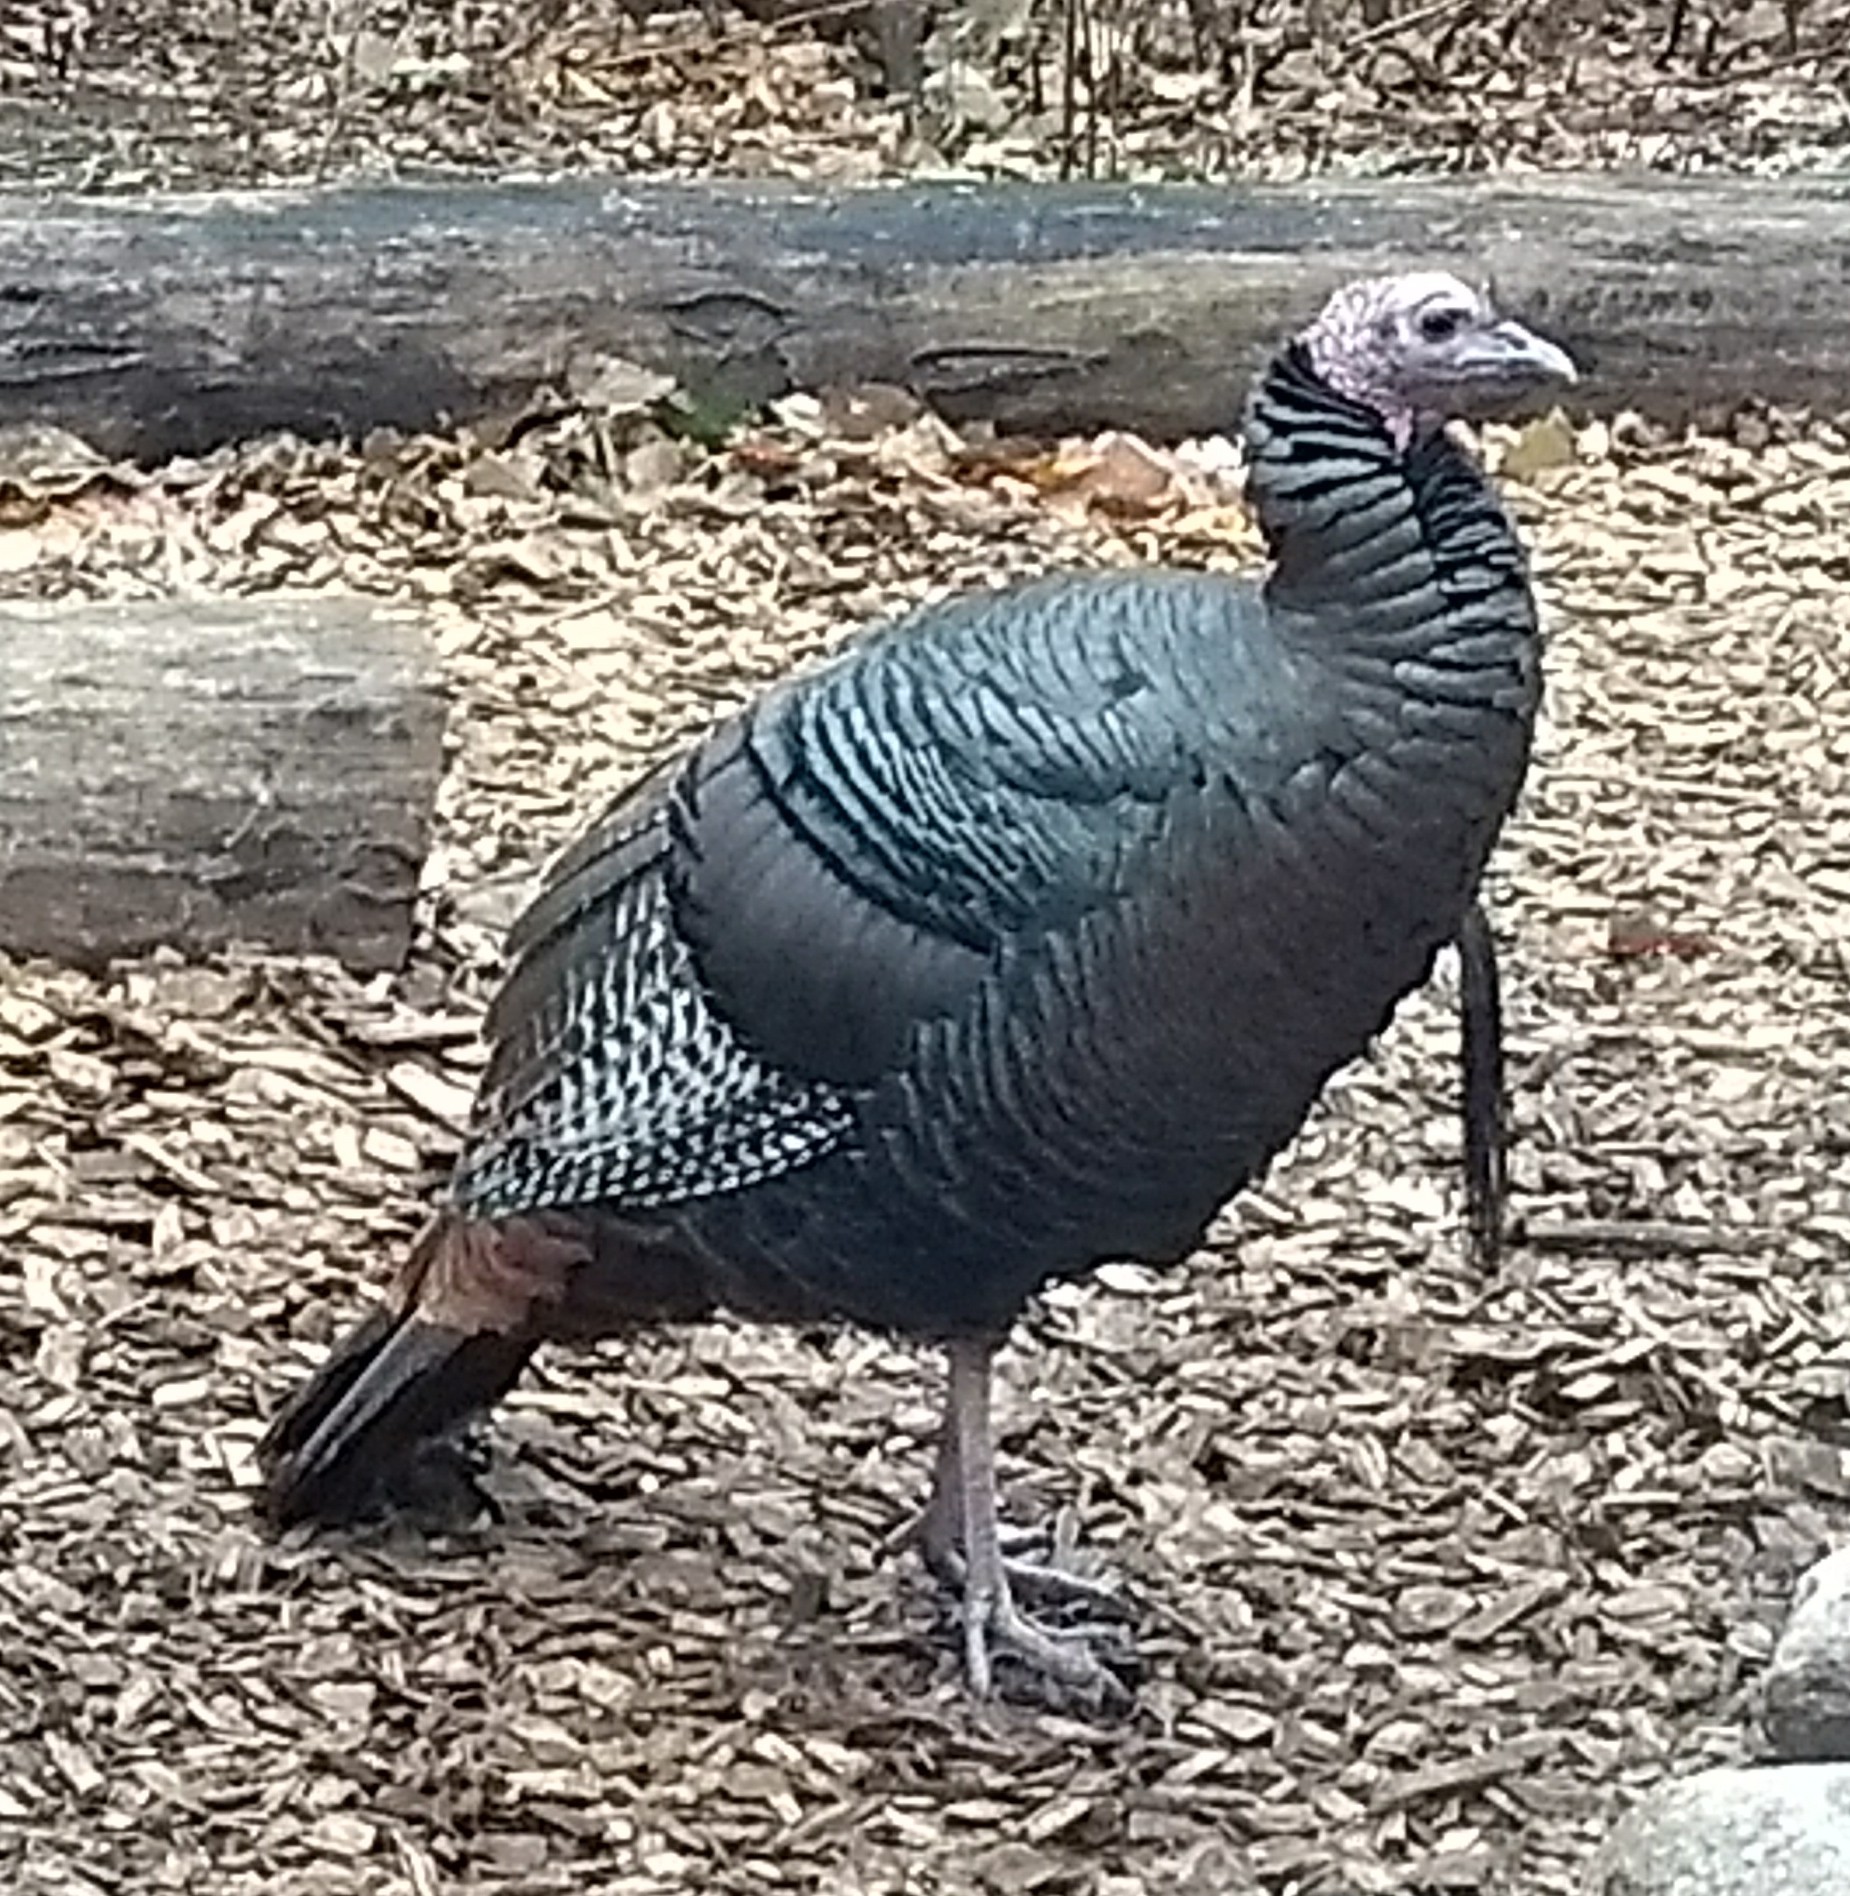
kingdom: Animalia
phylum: Chordata
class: Aves
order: Galliformes
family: Phasianidae
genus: Meleagris
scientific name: Meleagris gallopavo
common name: Wild turkey
